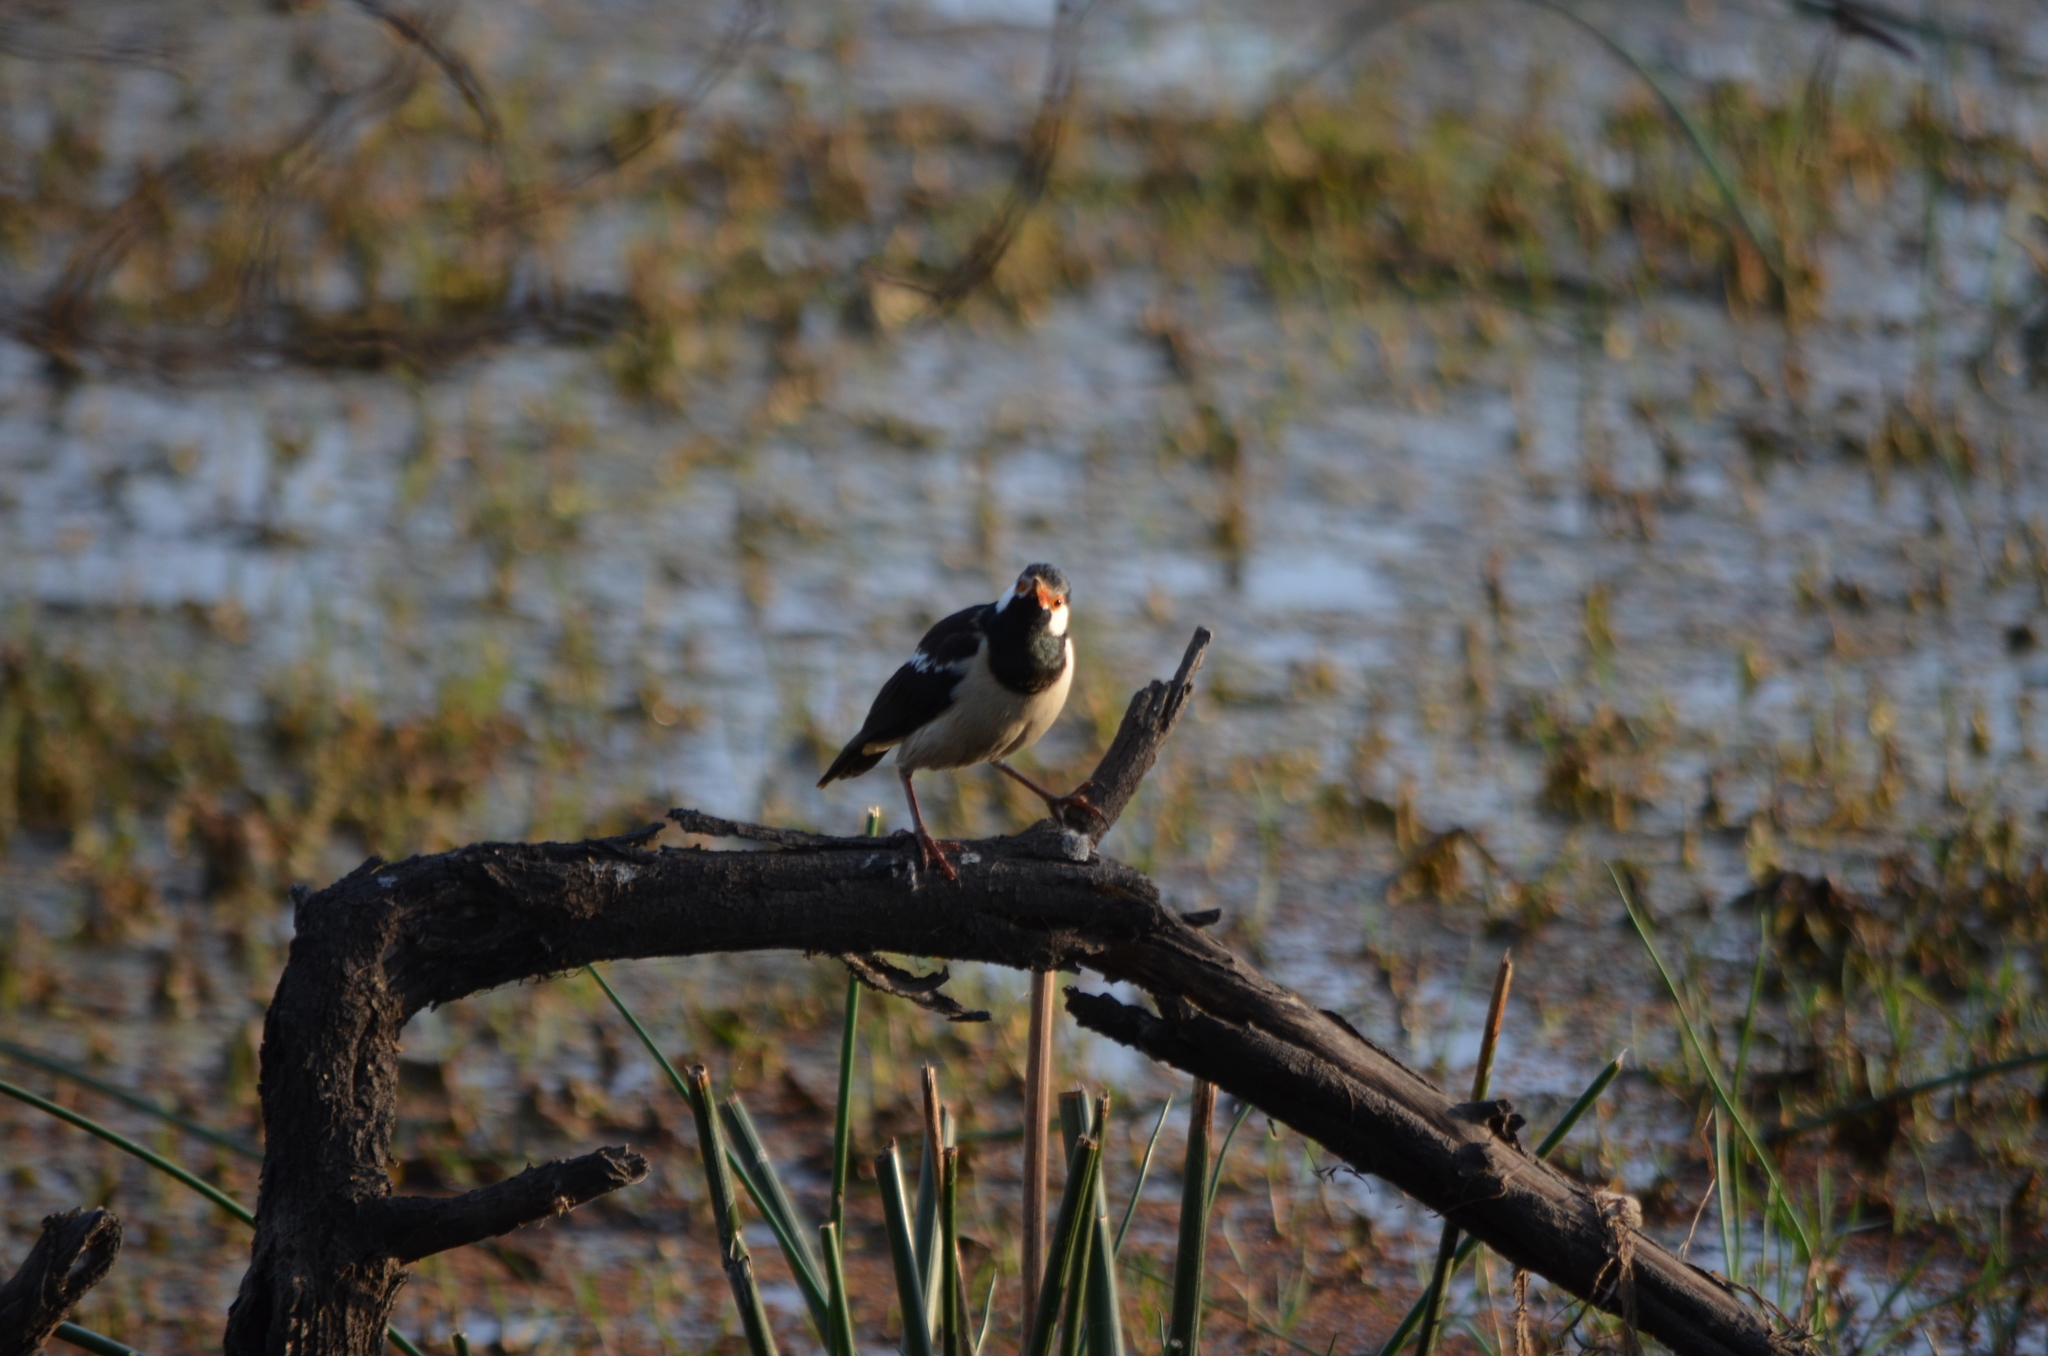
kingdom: Animalia
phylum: Chordata
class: Aves
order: Passeriformes
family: Sturnidae
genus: Gracupica
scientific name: Gracupica contra
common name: Pied myna
